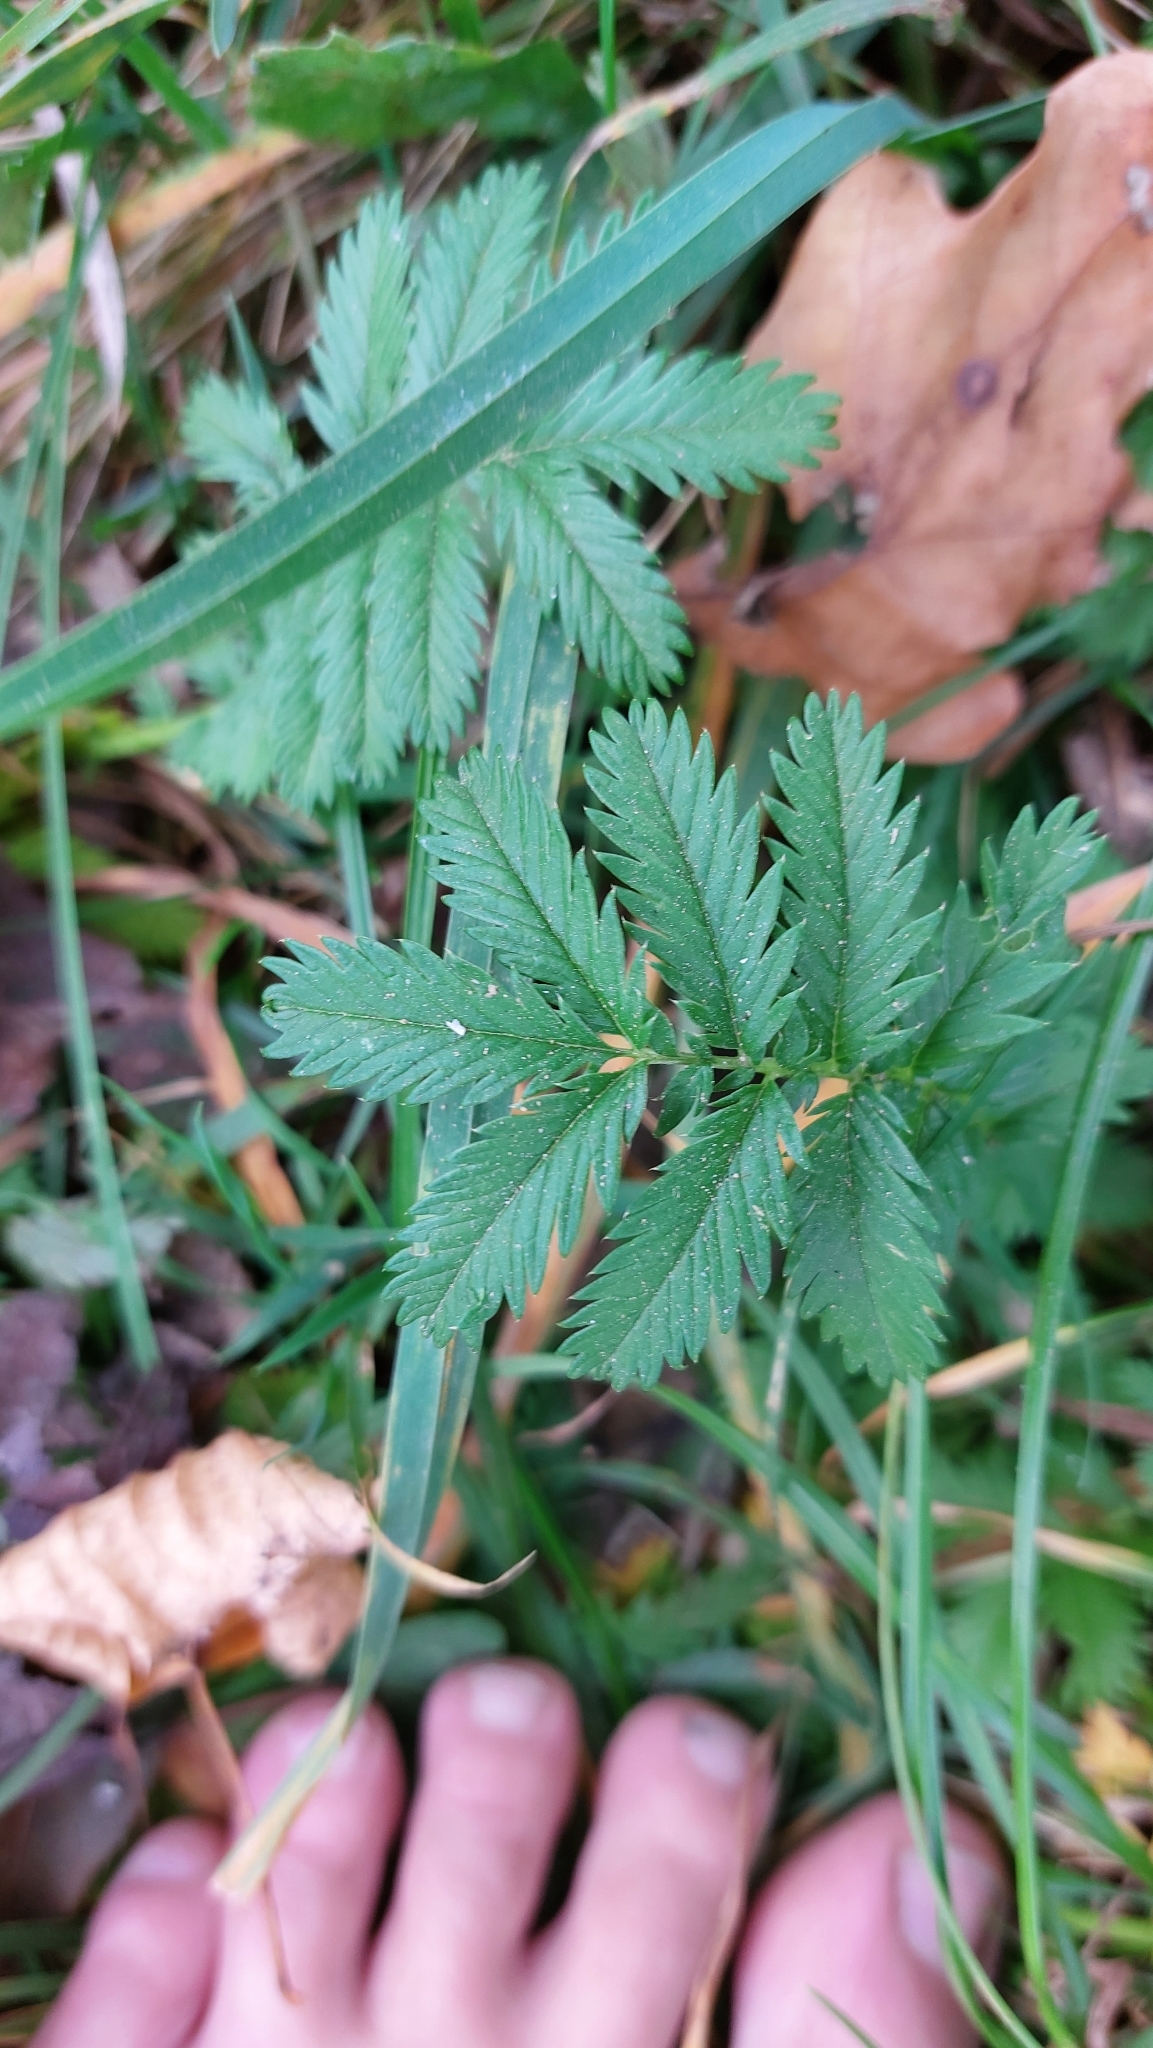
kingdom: Plantae
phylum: Tracheophyta
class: Magnoliopsida
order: Rosales
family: Rosaceae
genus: Argentina
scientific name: Argentina anserina
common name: Common silverweed
